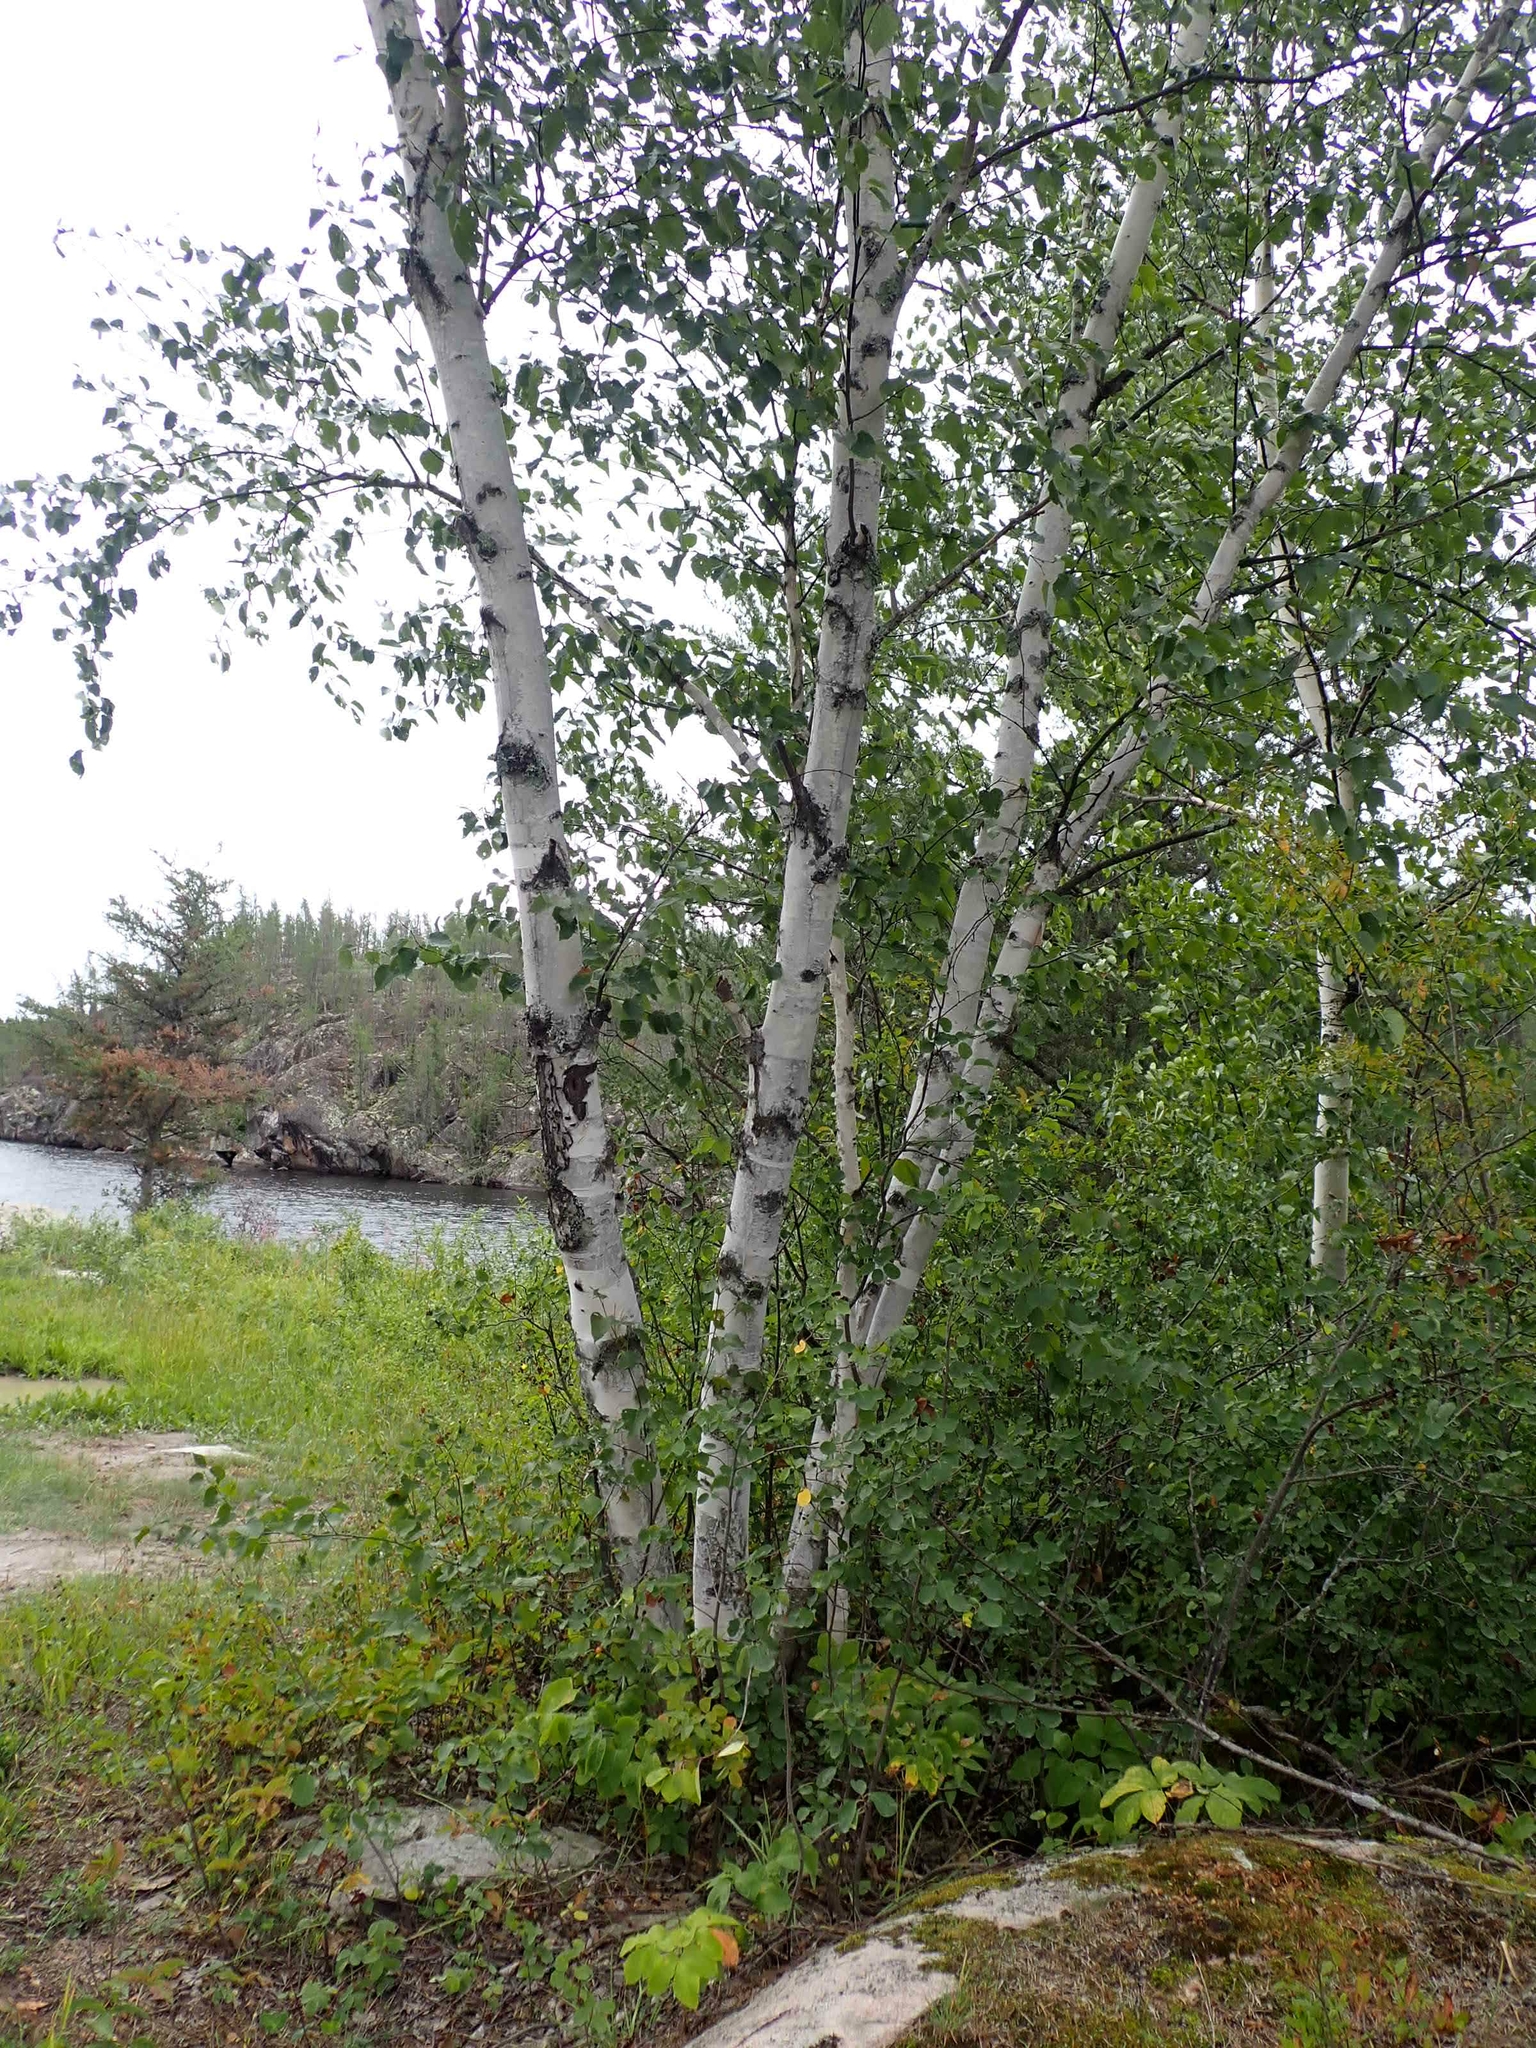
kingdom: Plantae
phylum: Tracheophyta
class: Magnoliopsida
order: Fagales
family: Betulaceae
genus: Betula
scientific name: Betula papyrifera
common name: Paper birch
